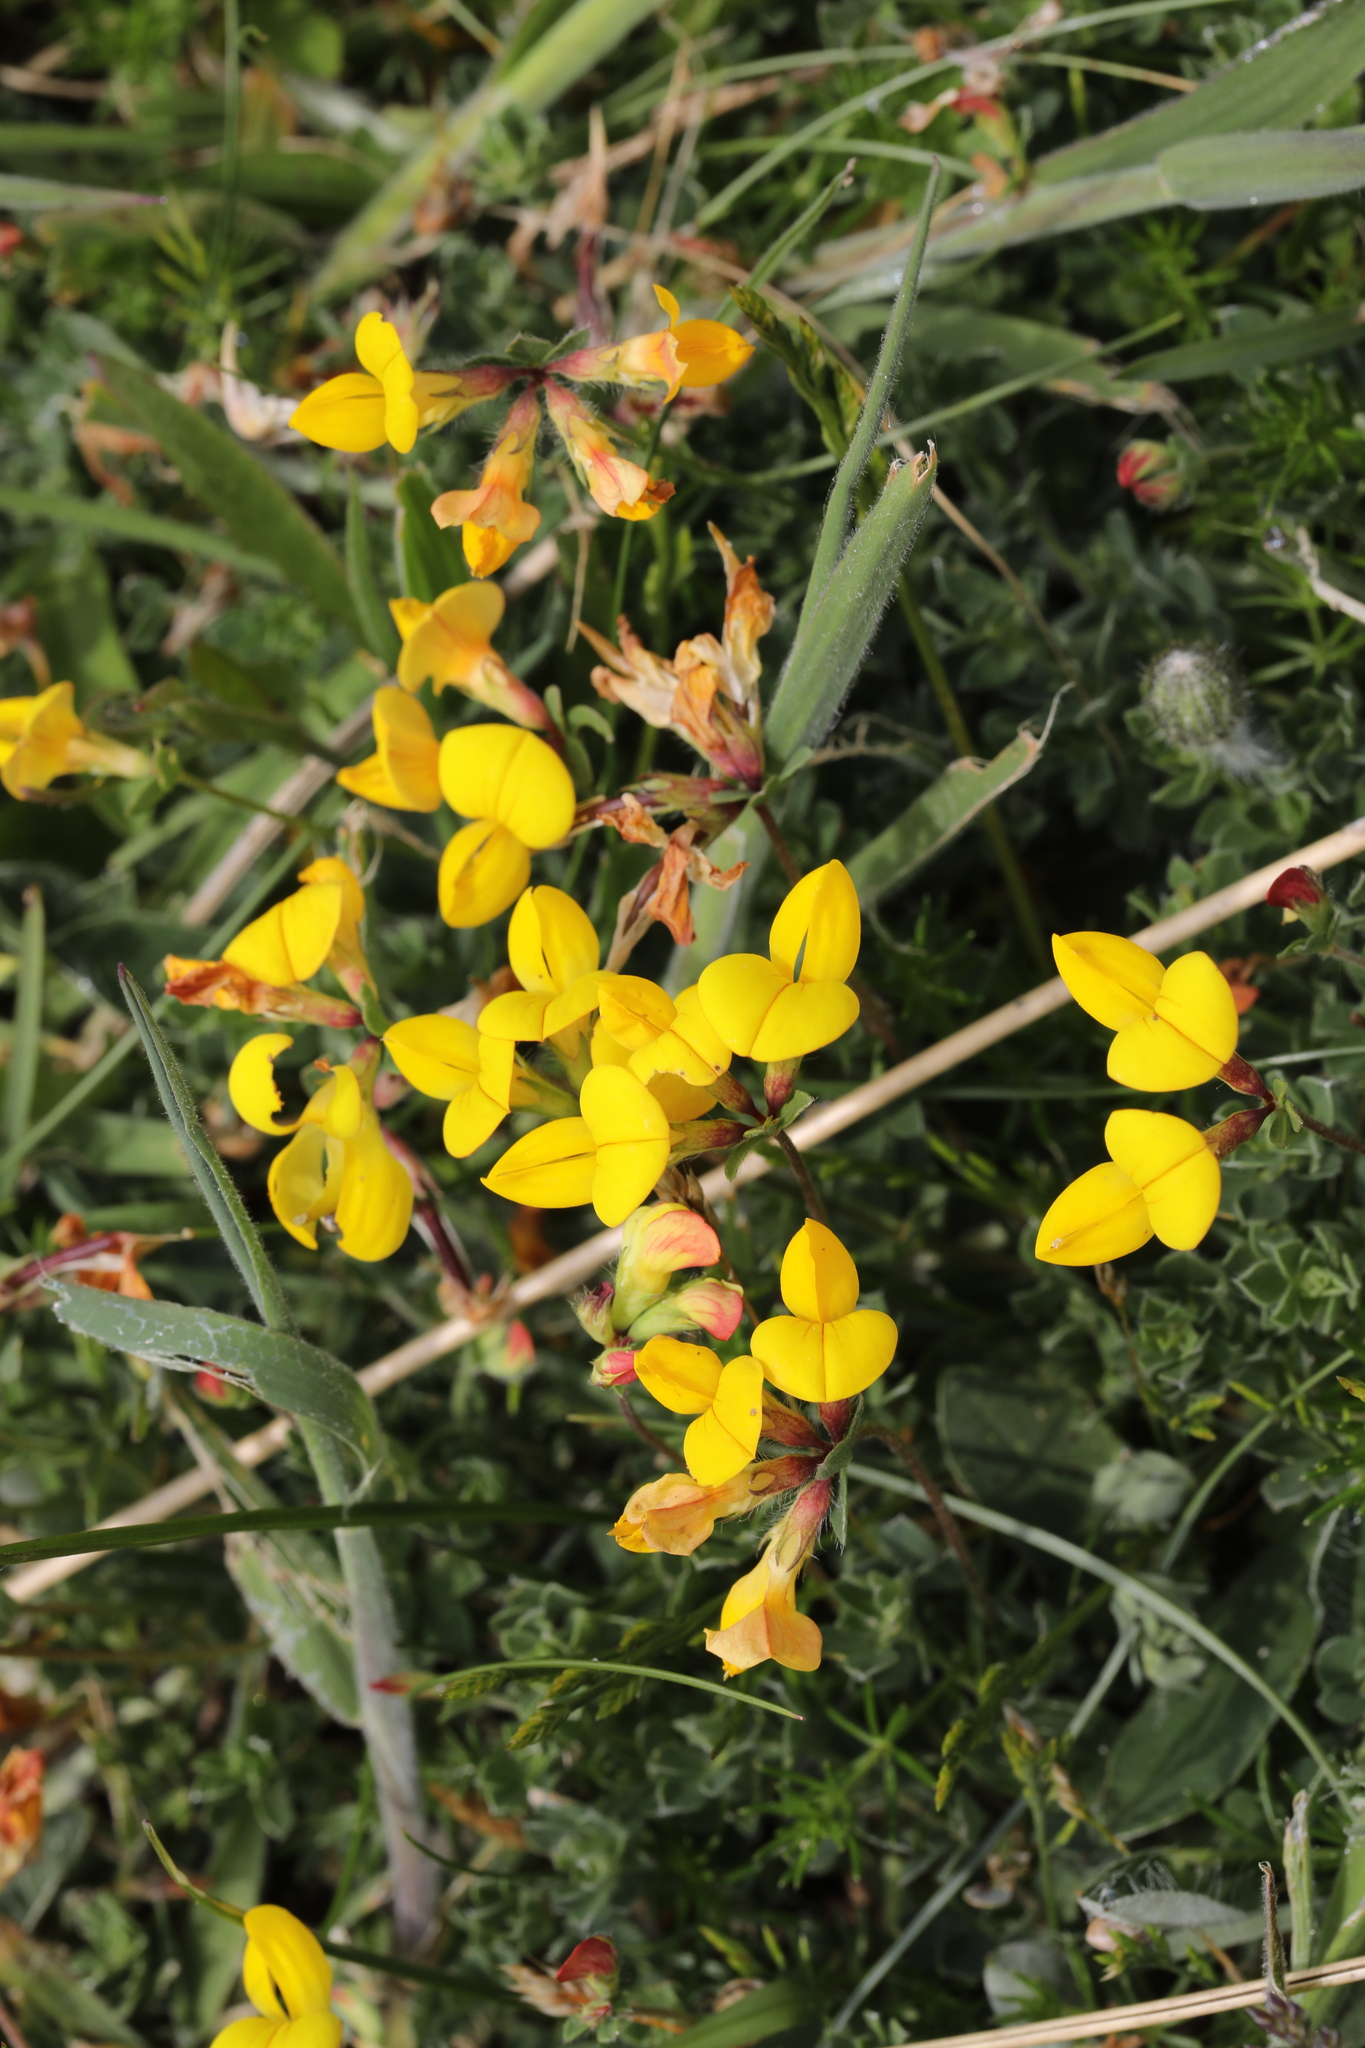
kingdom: Plantae
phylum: Tracheophyta
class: Magnoliopsida
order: Fabales
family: Fabaceae
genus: Lotus
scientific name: Lotus corniculatus
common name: Common bird's-foot-trefoil
